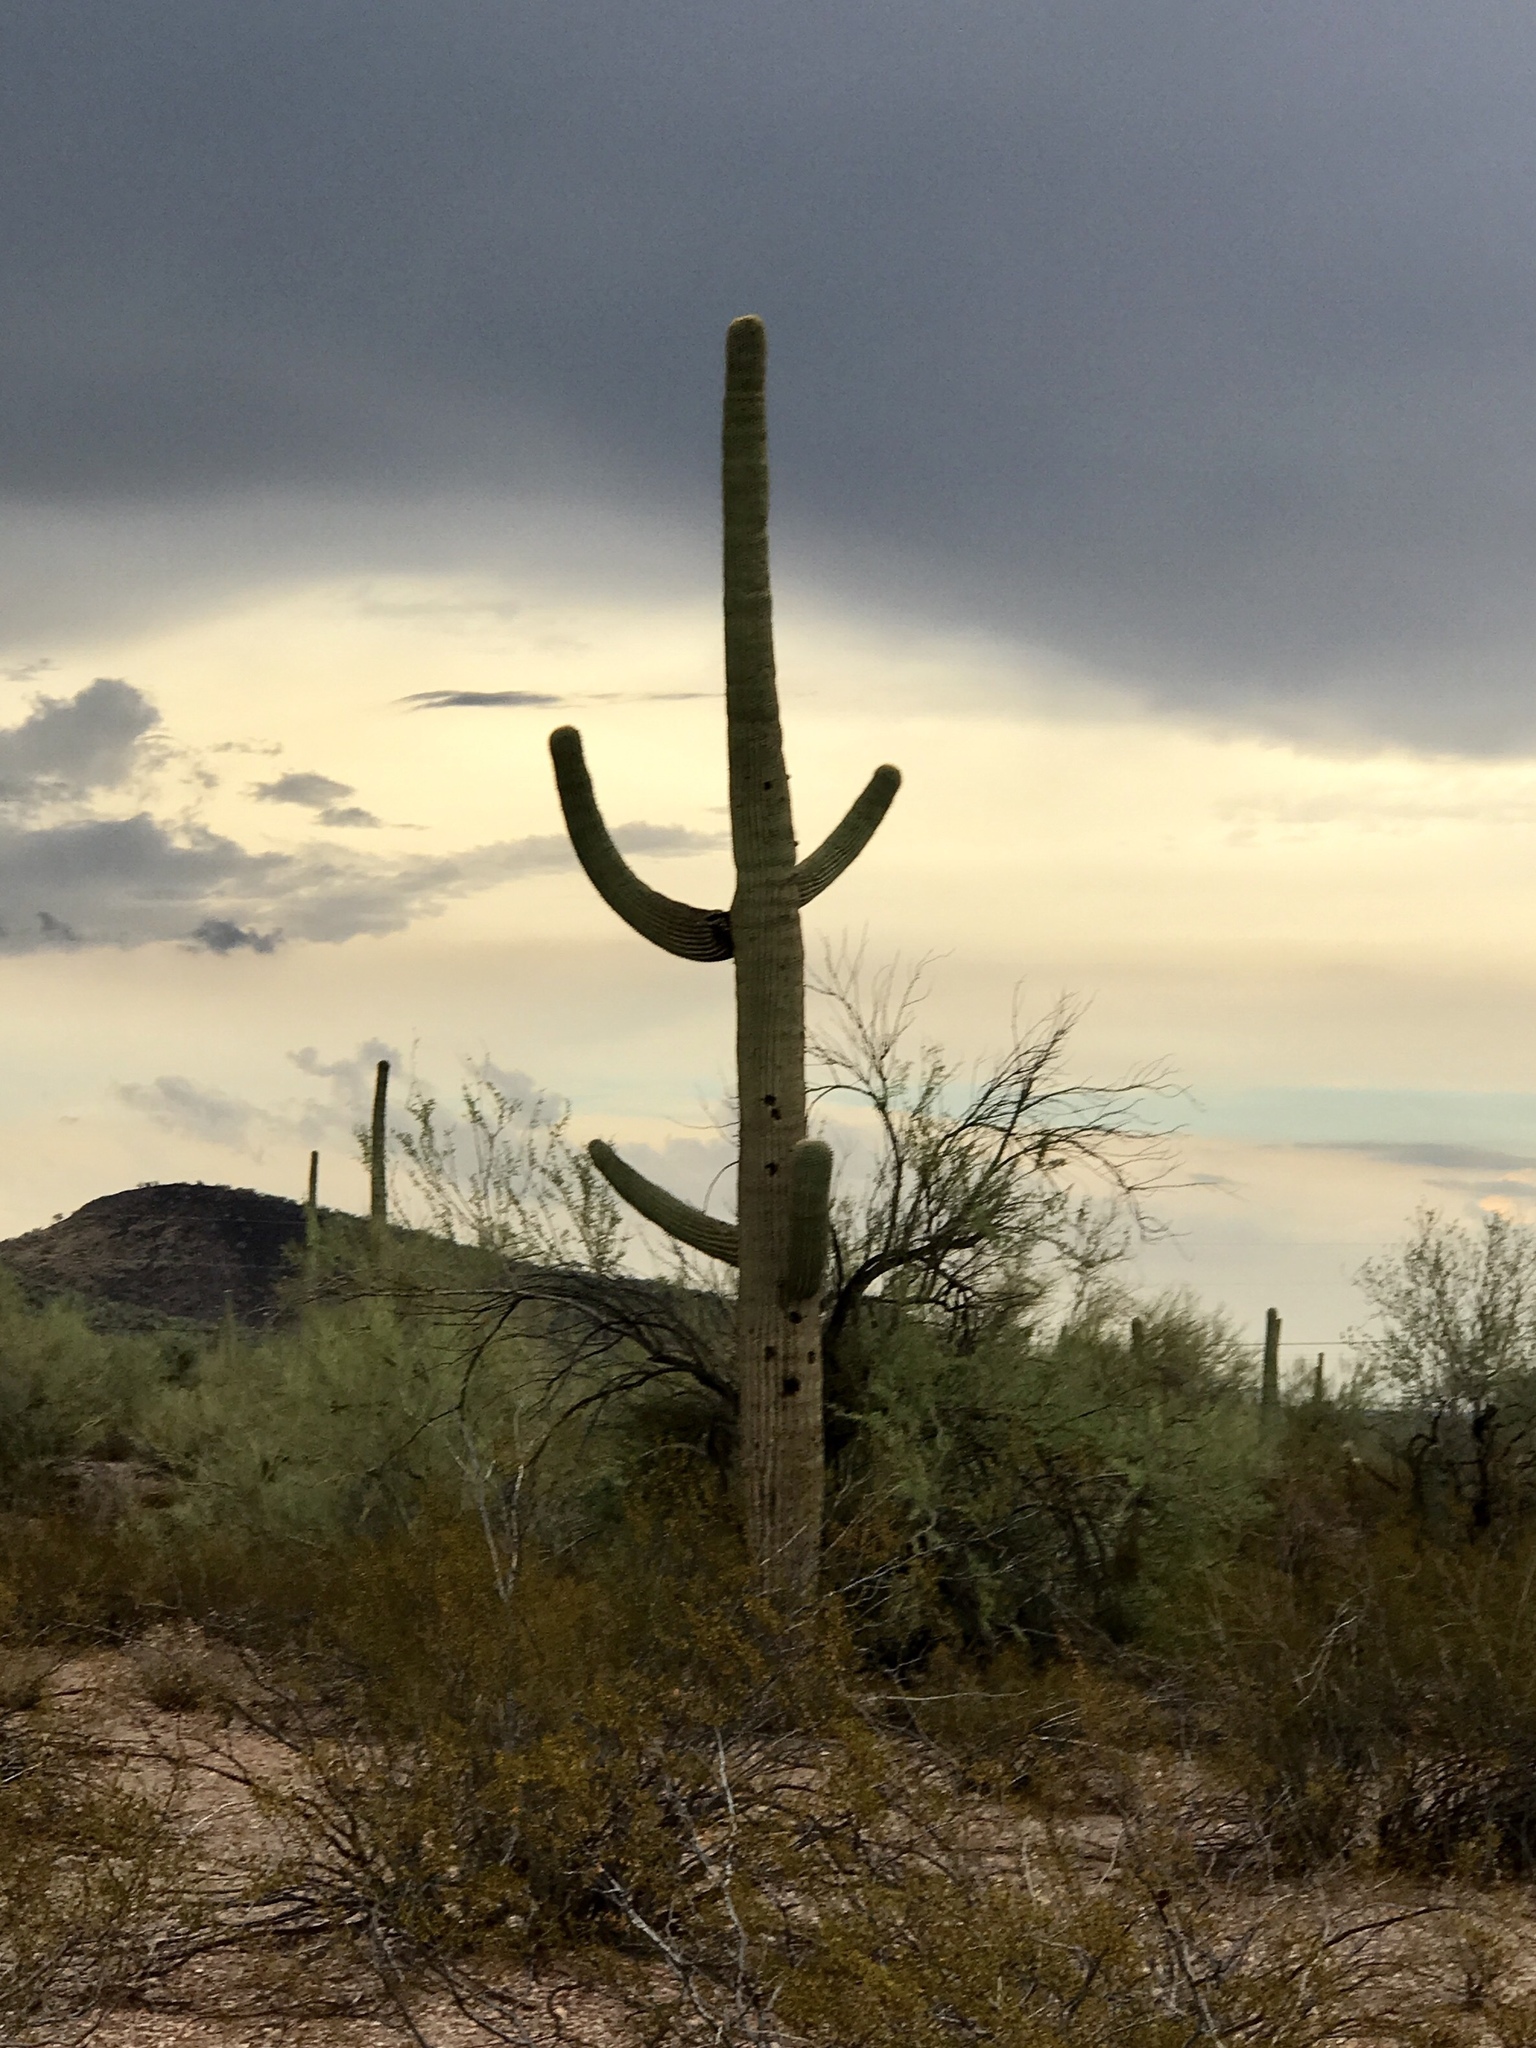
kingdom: Plantae
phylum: Tracheophyta
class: Magnoliopsida
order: Caryophyllales
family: Cactaceae
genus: Carnegiea
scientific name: Carnegiea gigantea
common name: Saguaro
